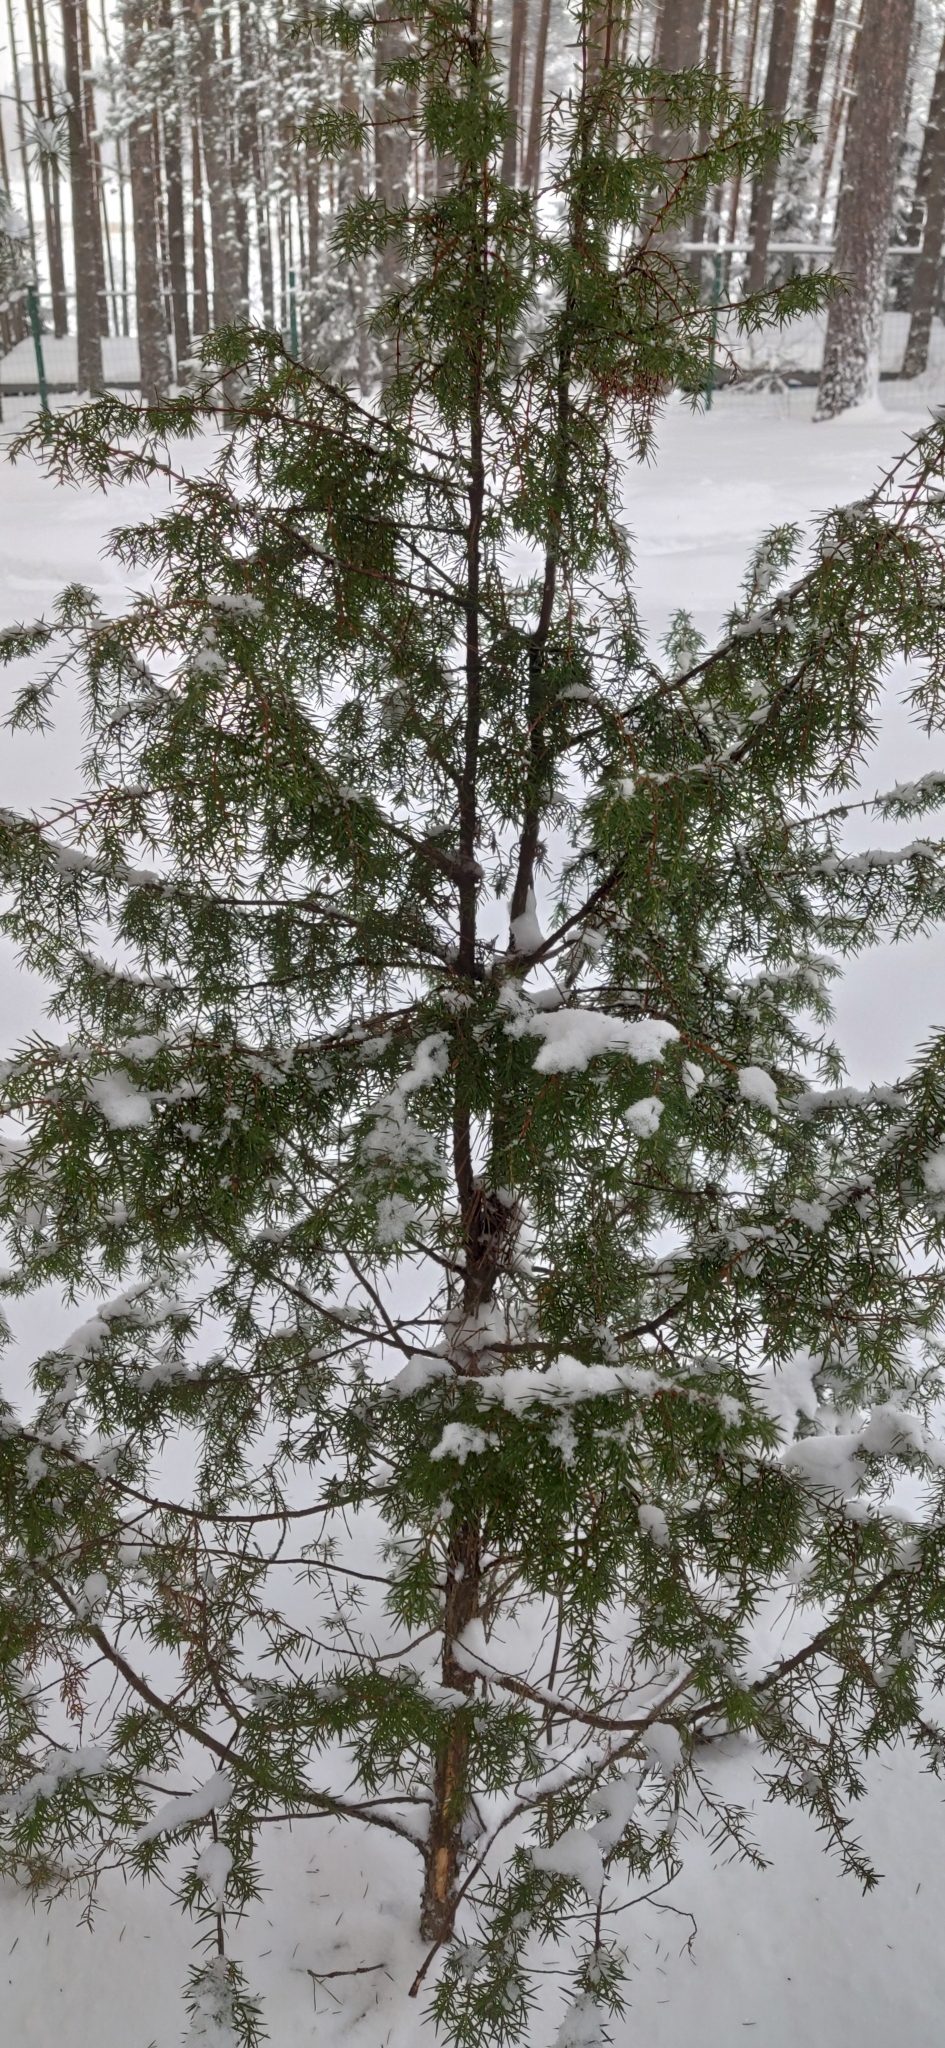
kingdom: Plantae
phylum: Tracheophyta
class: Pinopsida
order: Pinales
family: Cupressaceae
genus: Juniperus
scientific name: Juniperus communis
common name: Common juniper
